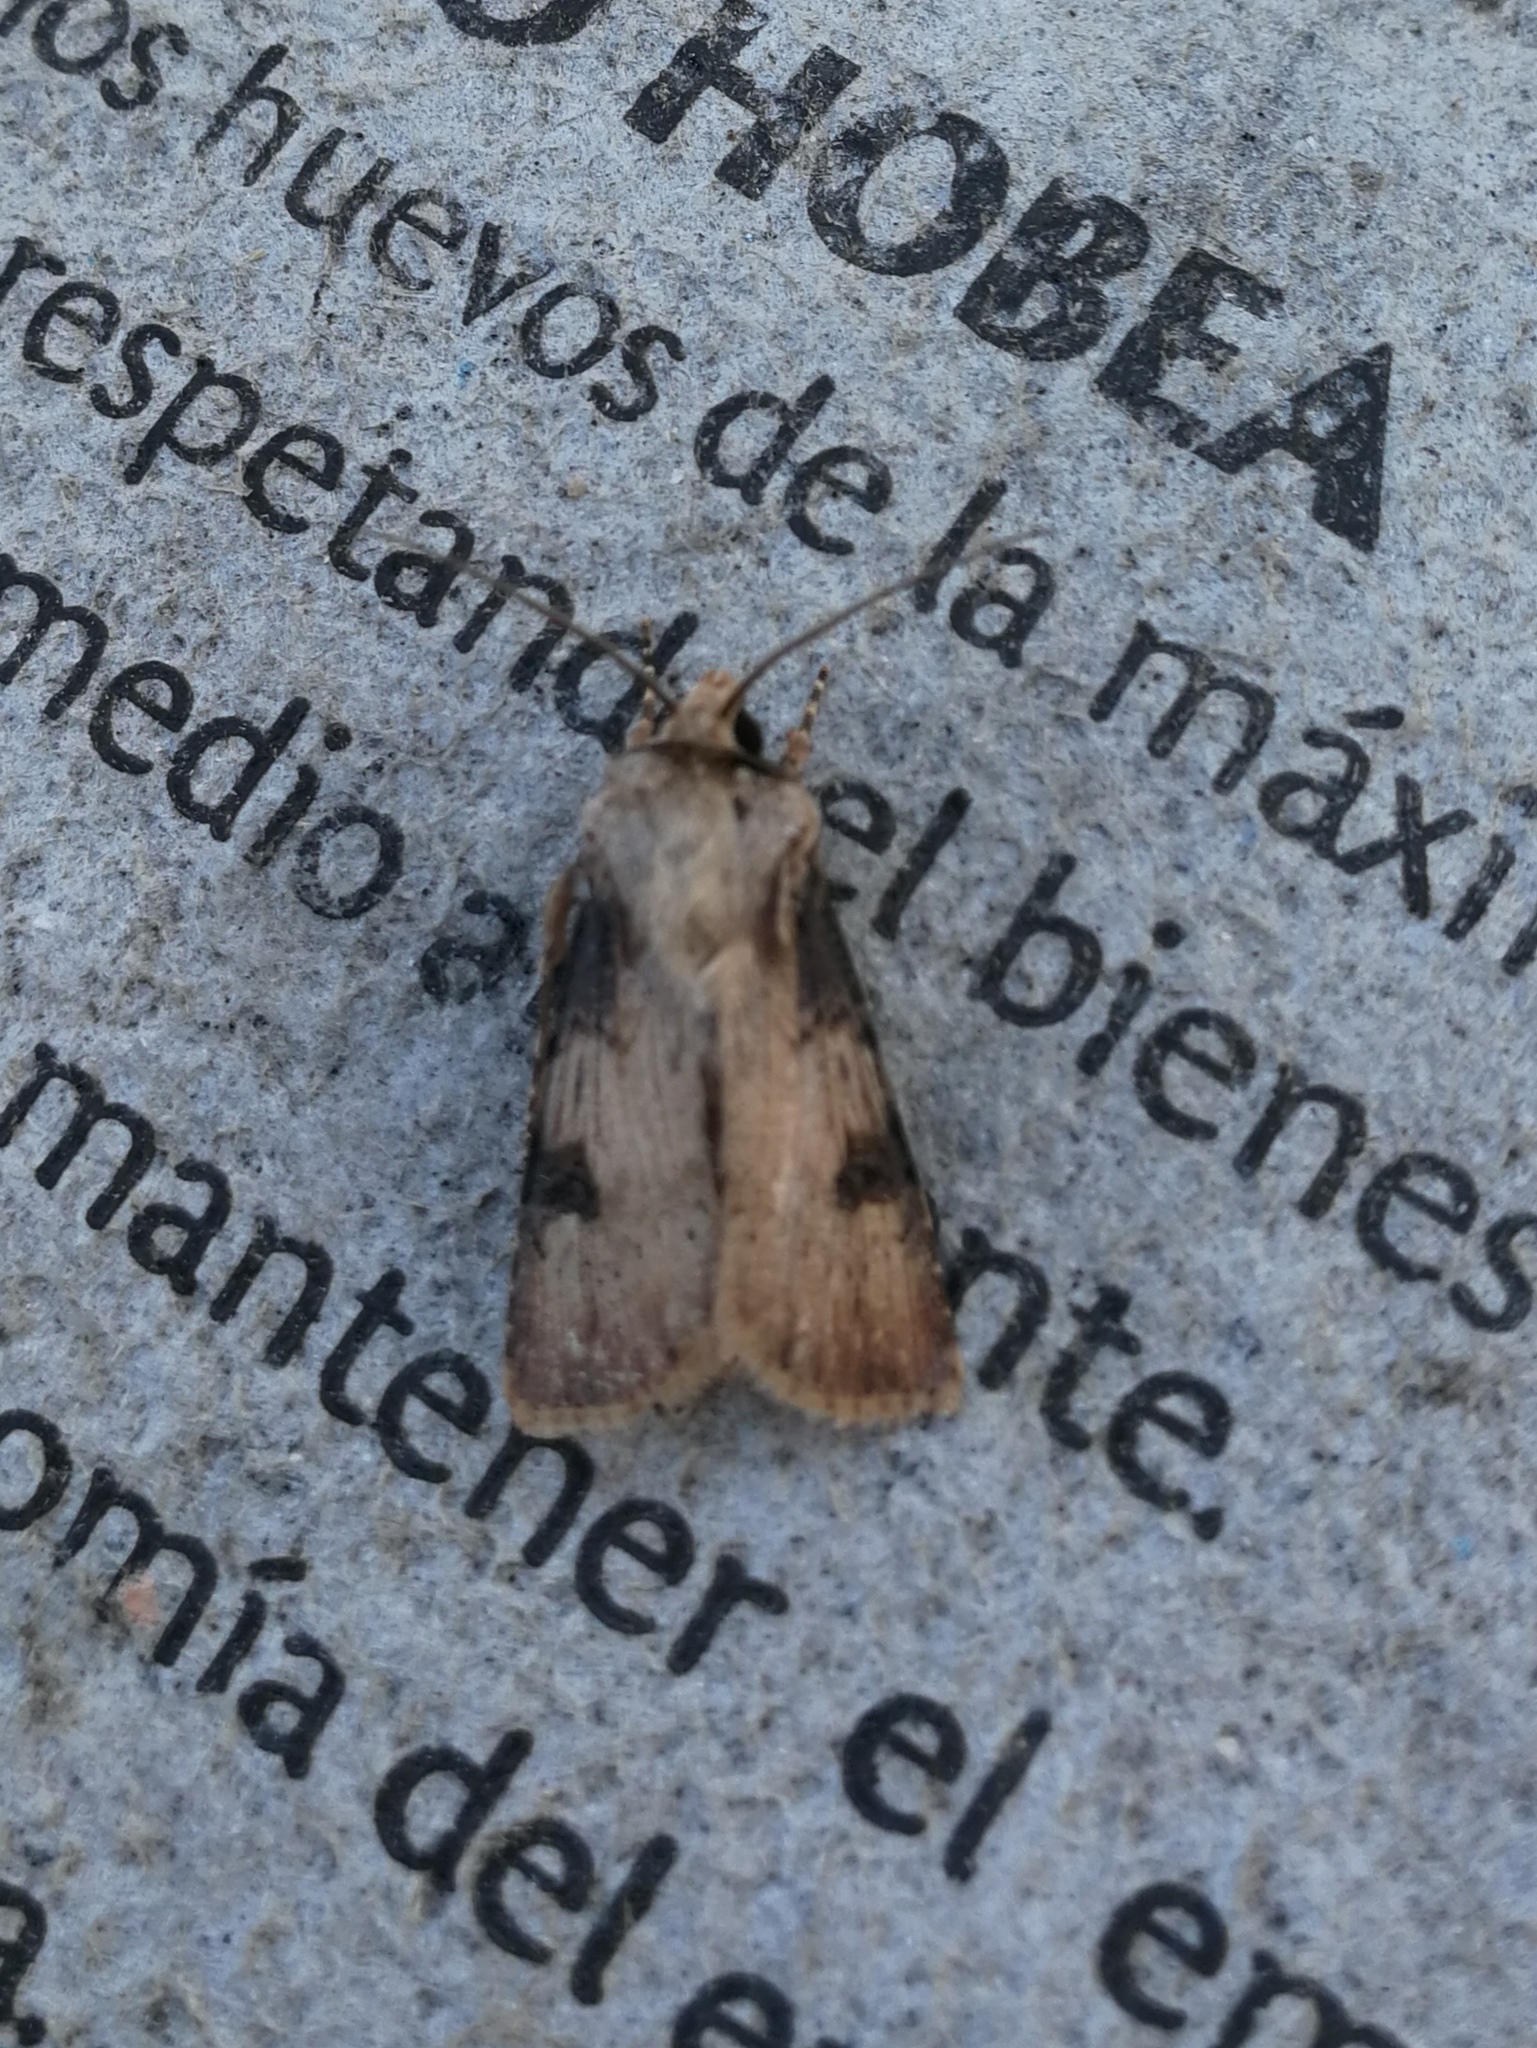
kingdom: Animalia
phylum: Arthropoda
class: Insecta
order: Lepidoptera
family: Noctuidae
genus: Agrotis
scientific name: Agrotis puta
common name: Shuttle-shaped dart
